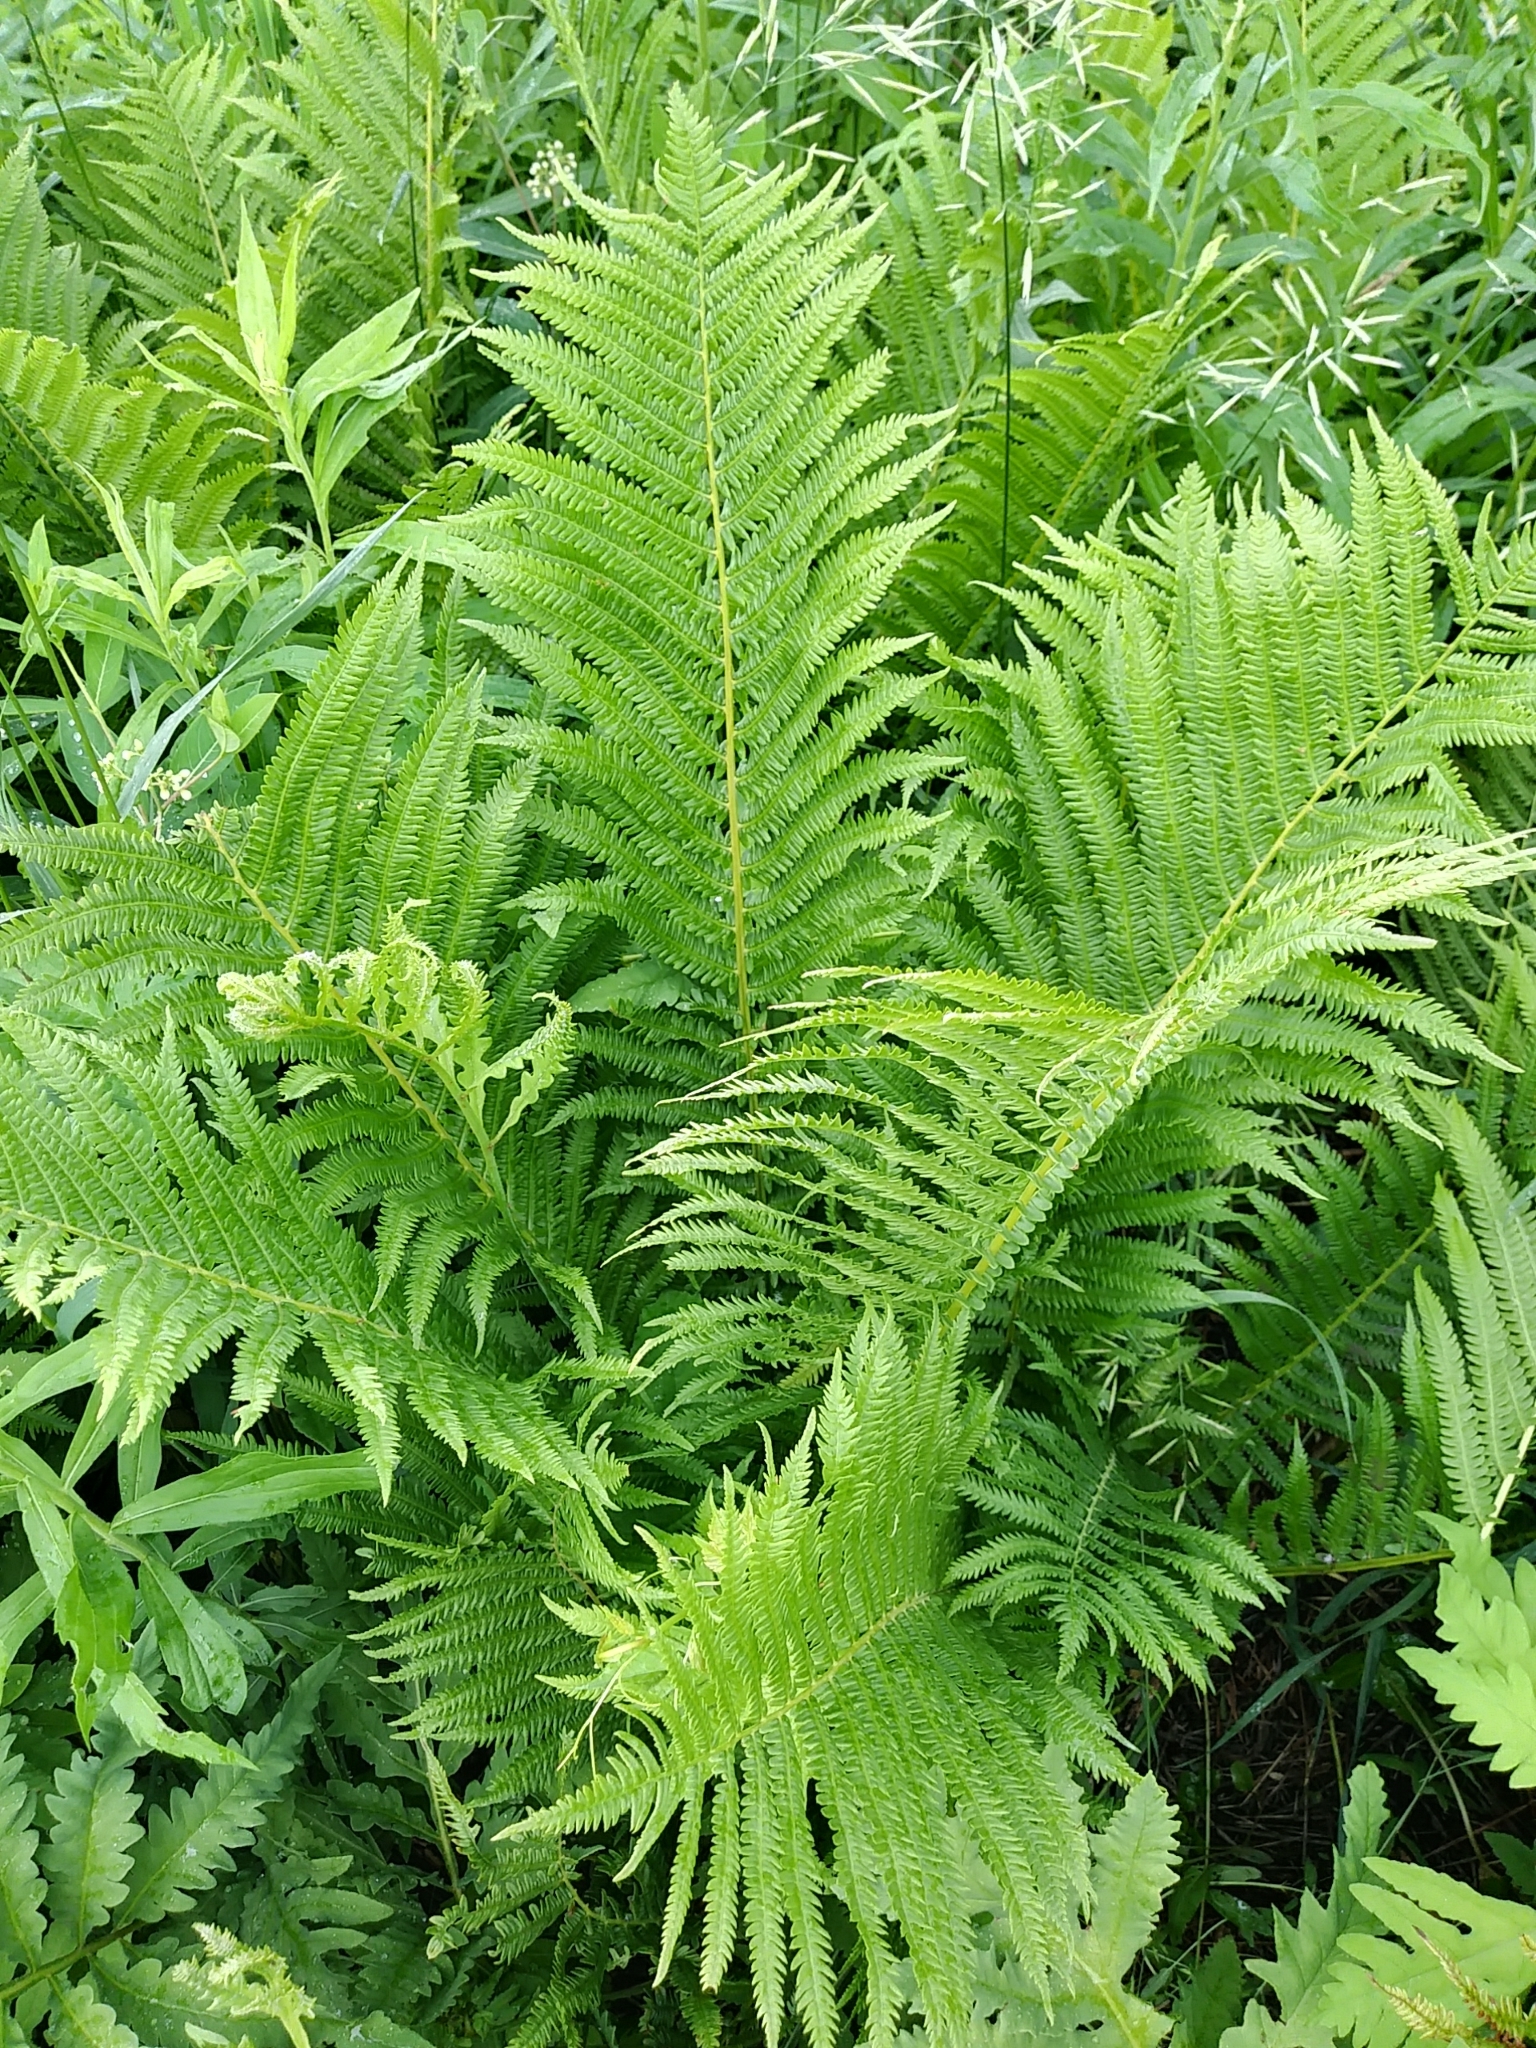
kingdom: Plantae
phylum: Tracheophyta
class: Polypodiopsida
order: Polypodiales
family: Onocleaceae
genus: Matteuccia
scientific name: Matteuccia struthiopteris
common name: Ostrich fern
